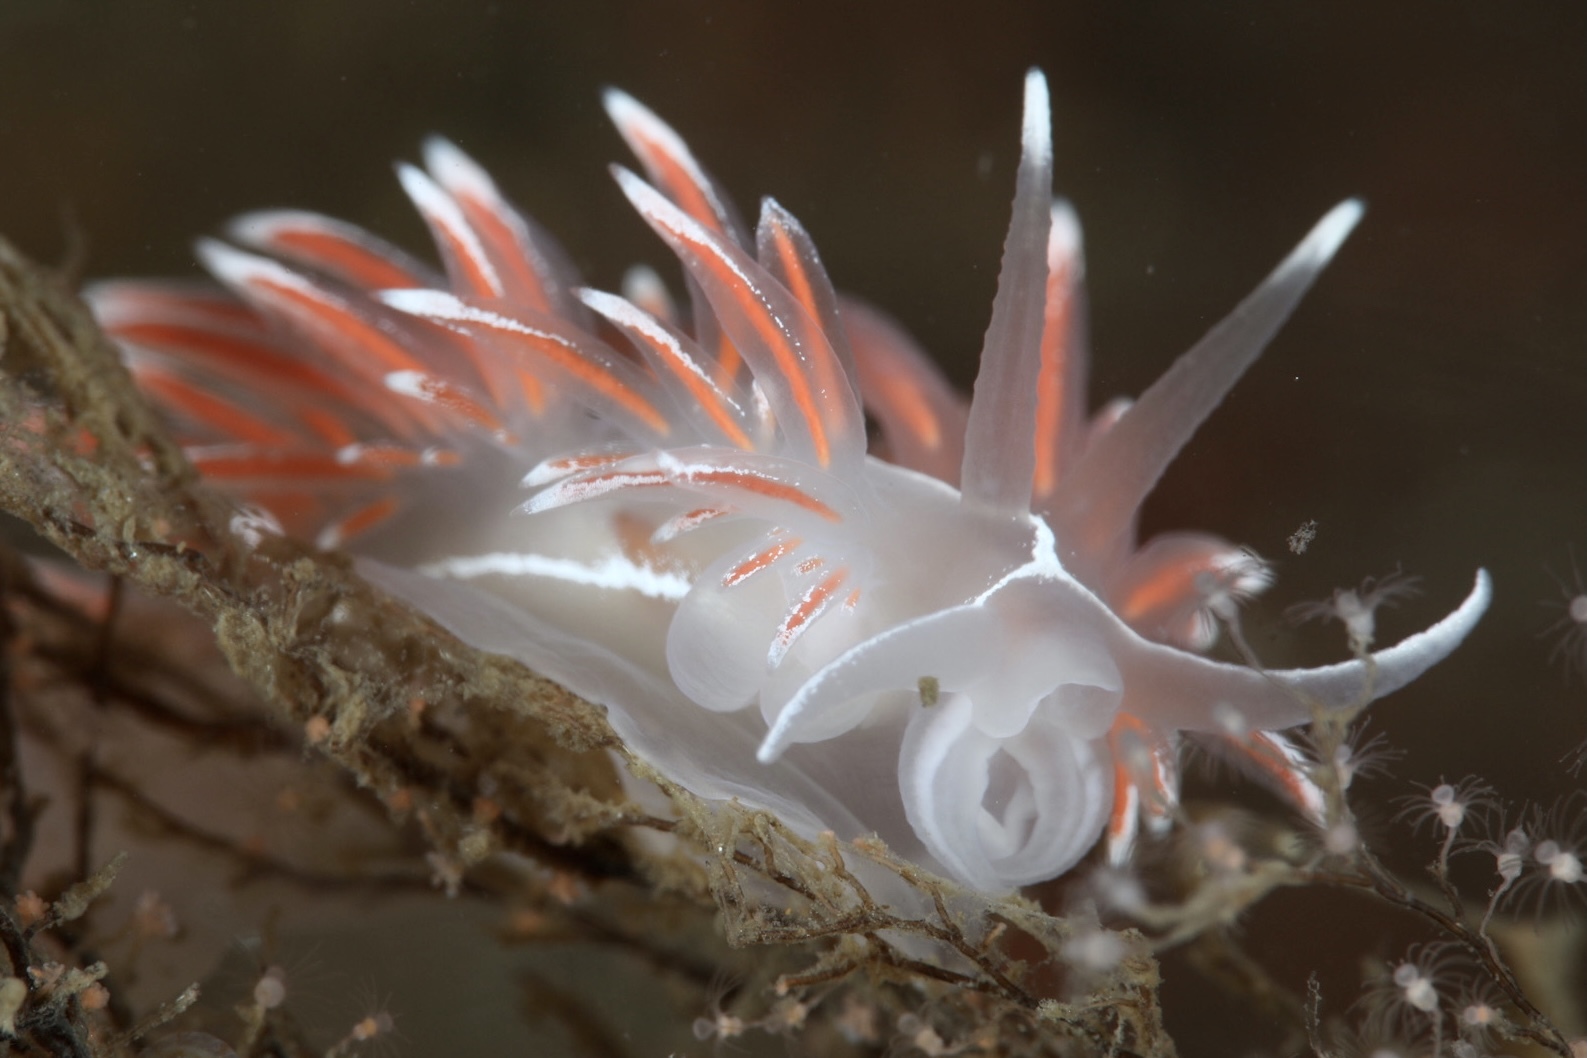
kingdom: Animalia
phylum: Mollusca
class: Gastropoda
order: Nudibranchia
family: Coryphellidae
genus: Coryphella
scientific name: Coryphella lineata
